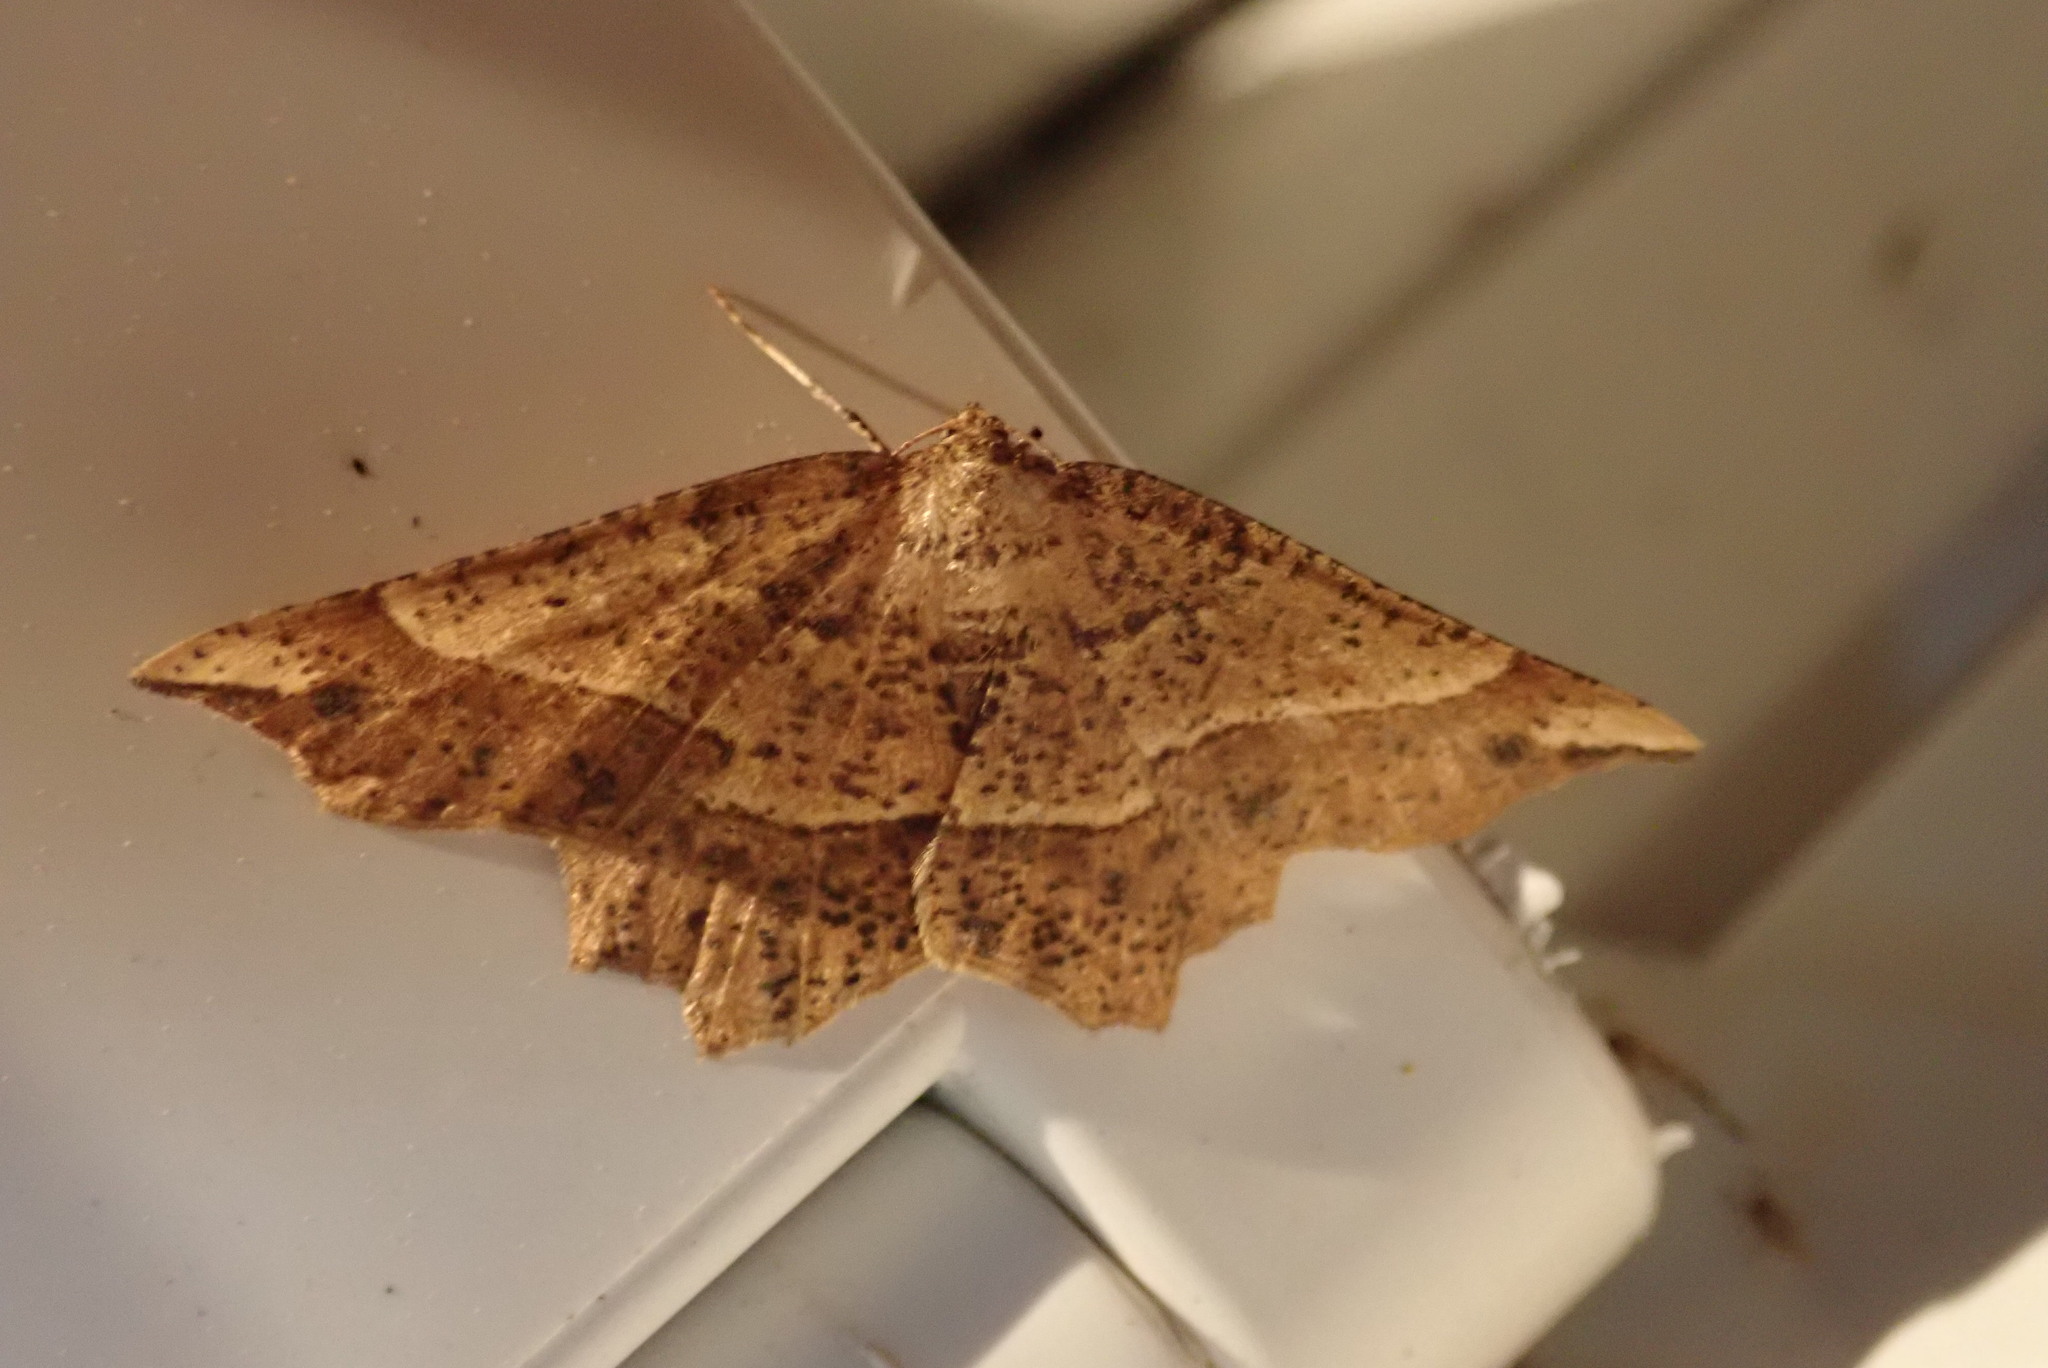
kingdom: Animalia
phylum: Arthropoda
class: Insecta
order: Lepidoptera
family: Geometridae
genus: Euchlaena
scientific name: Euchlaena tigrinaria
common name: Mottled euchlaena moth
